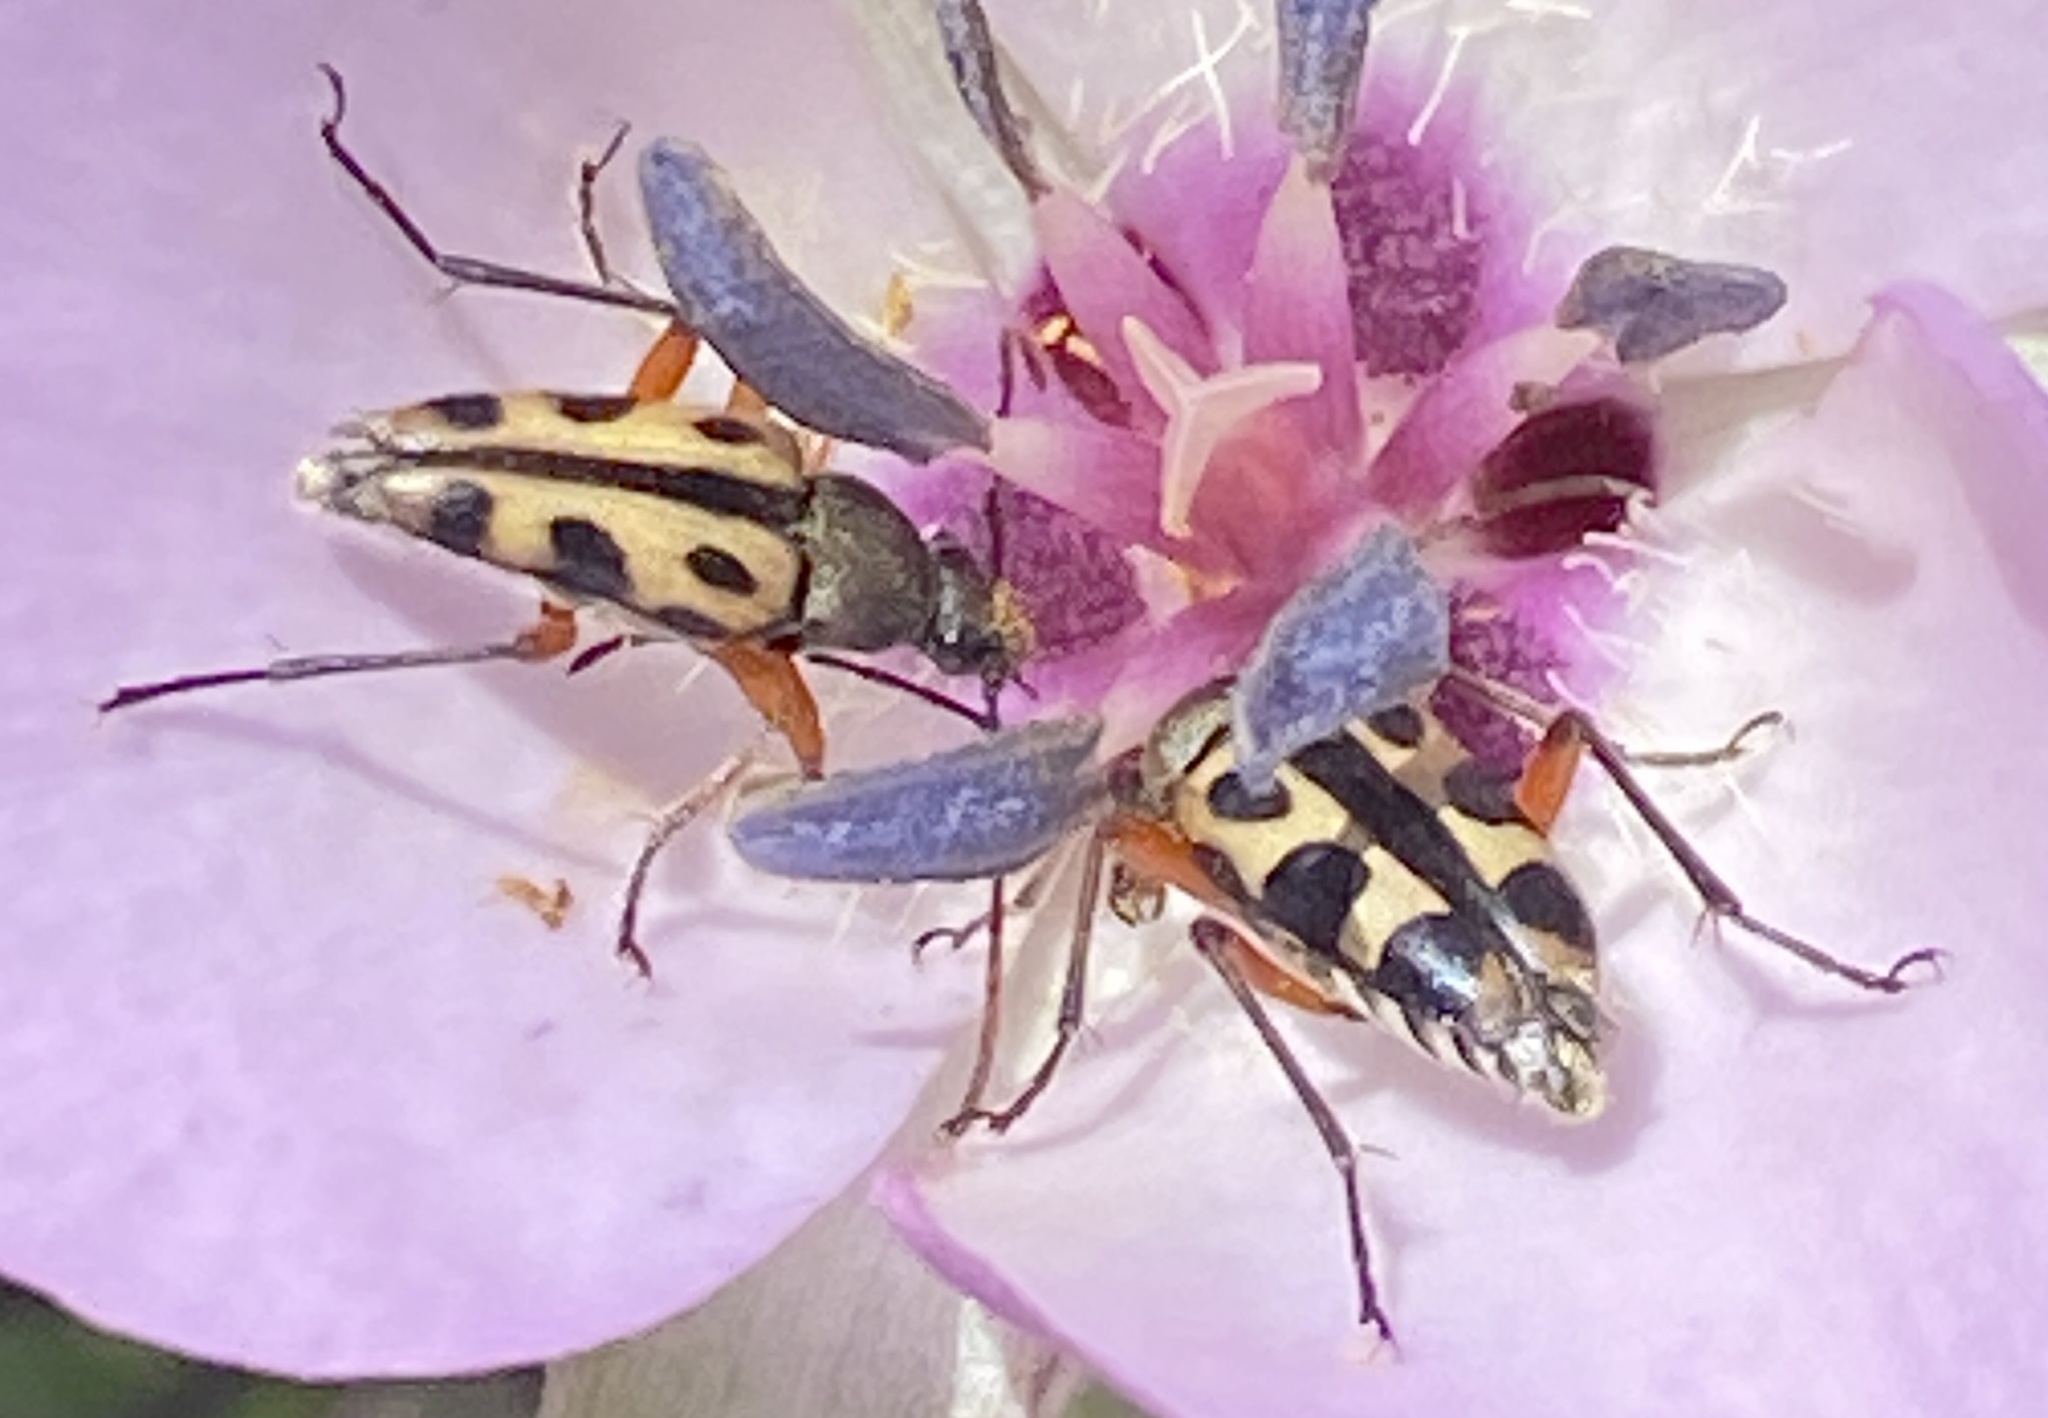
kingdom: Animalia
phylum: Arthropoda
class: Insecta
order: Coleoptera
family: Cerambycidae
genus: Judolia
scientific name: Judolia sexspilota
